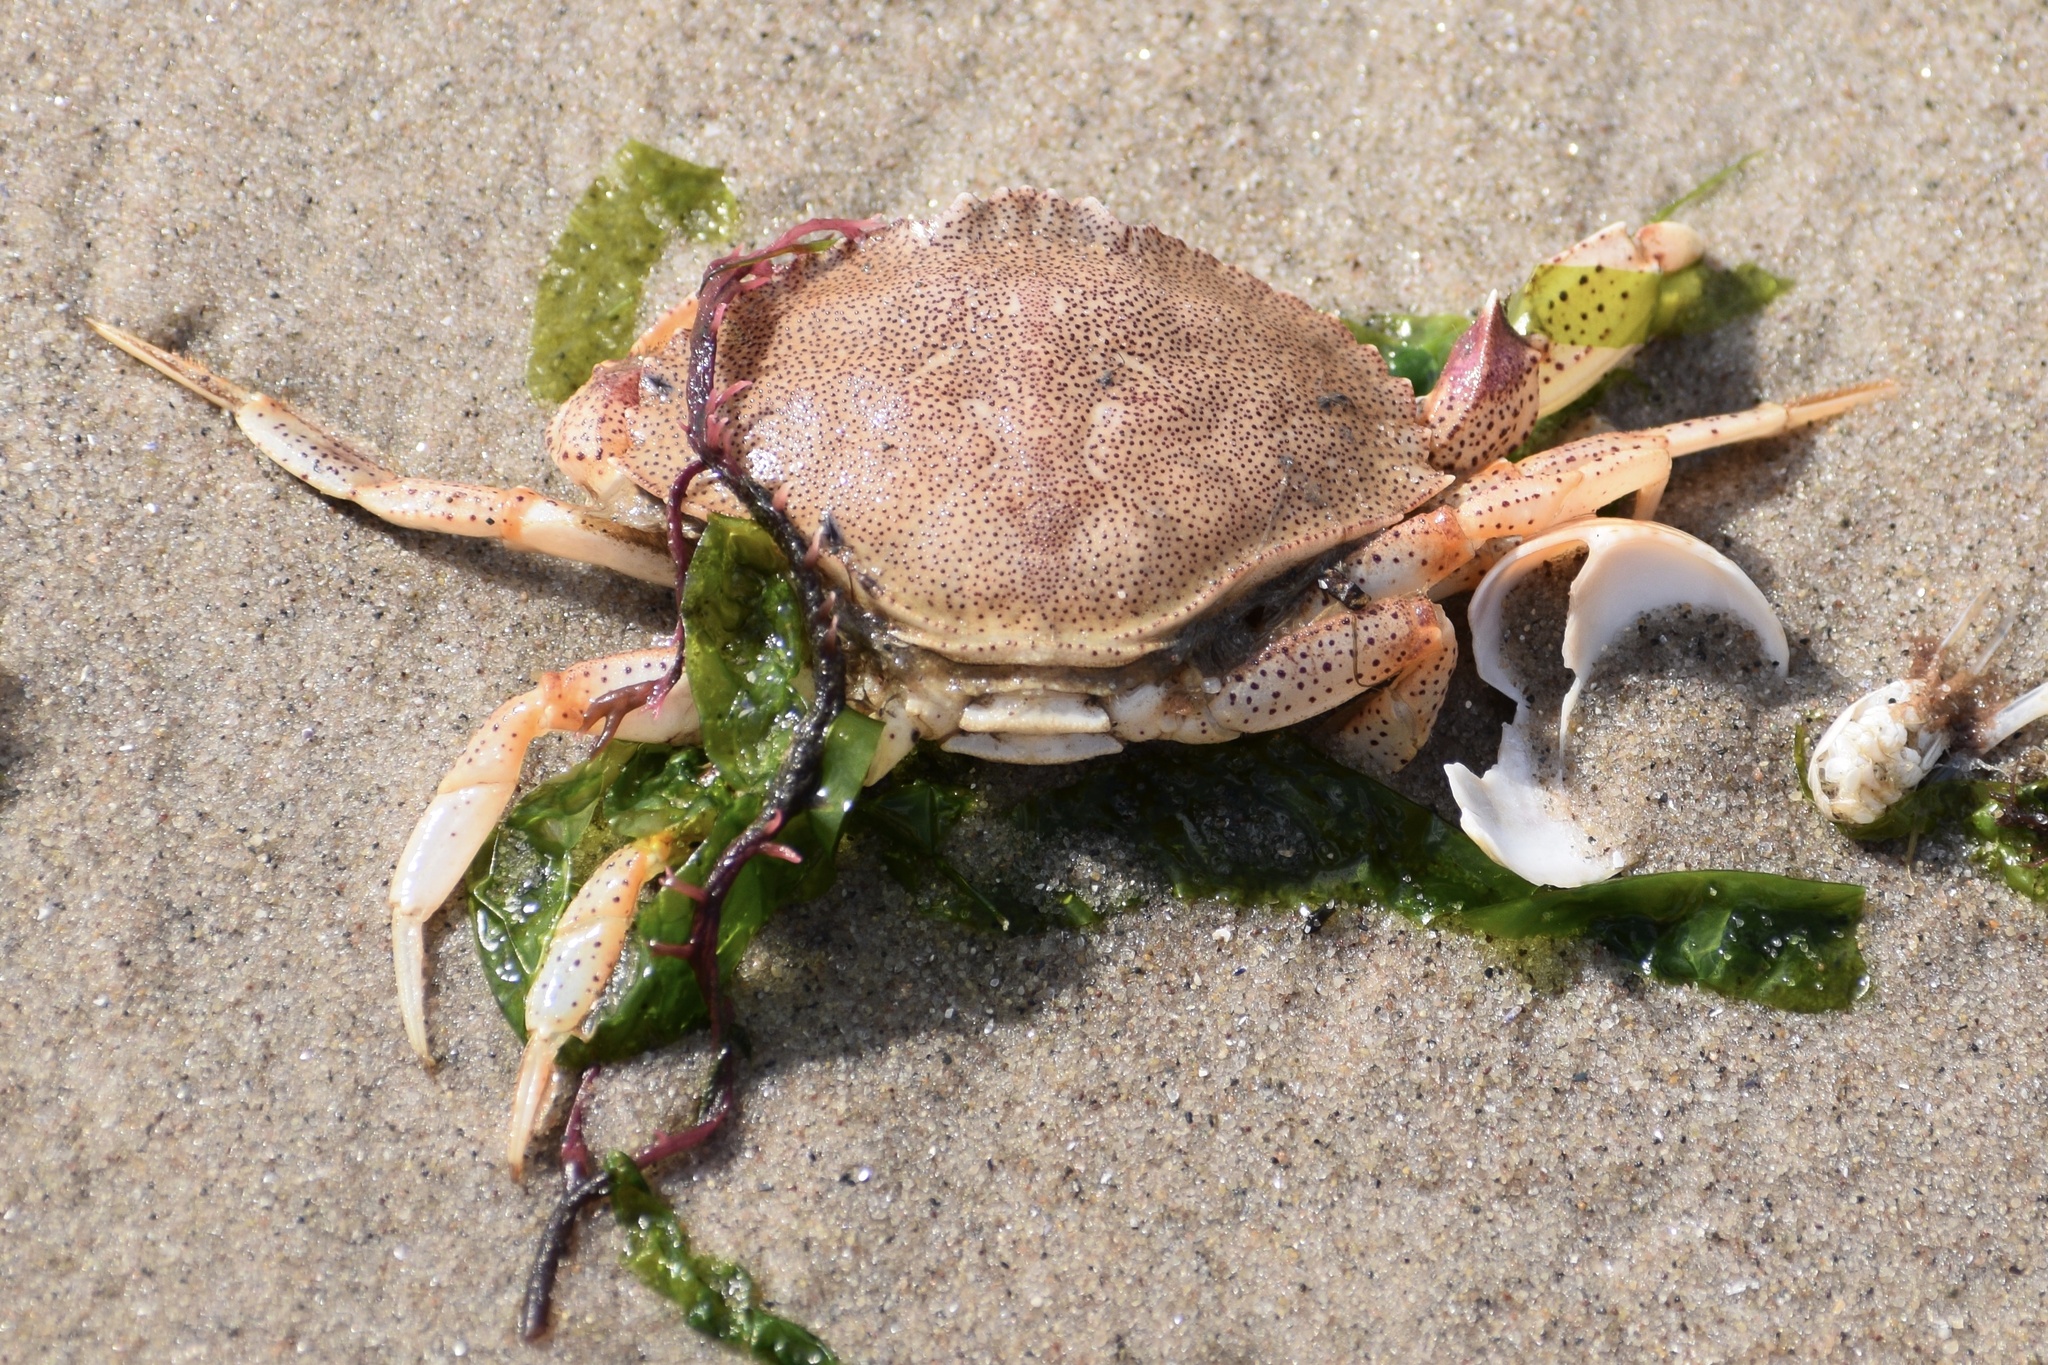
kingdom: Animalia
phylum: Arthropoda
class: Malacostraca
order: Decapoda
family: Cancridae
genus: Cancer
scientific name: Cancer irroratus
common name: Atlantic rock crab
